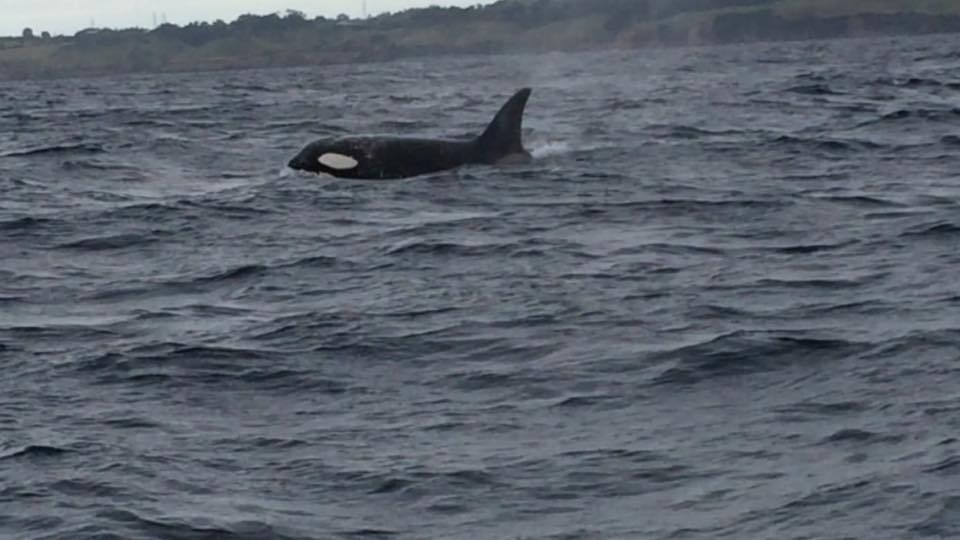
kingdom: Animalia
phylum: Chordata
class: Mammalia
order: Cetacea
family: Delphinidae
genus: Orcinus
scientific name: Orcinus orca
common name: Killer whale
